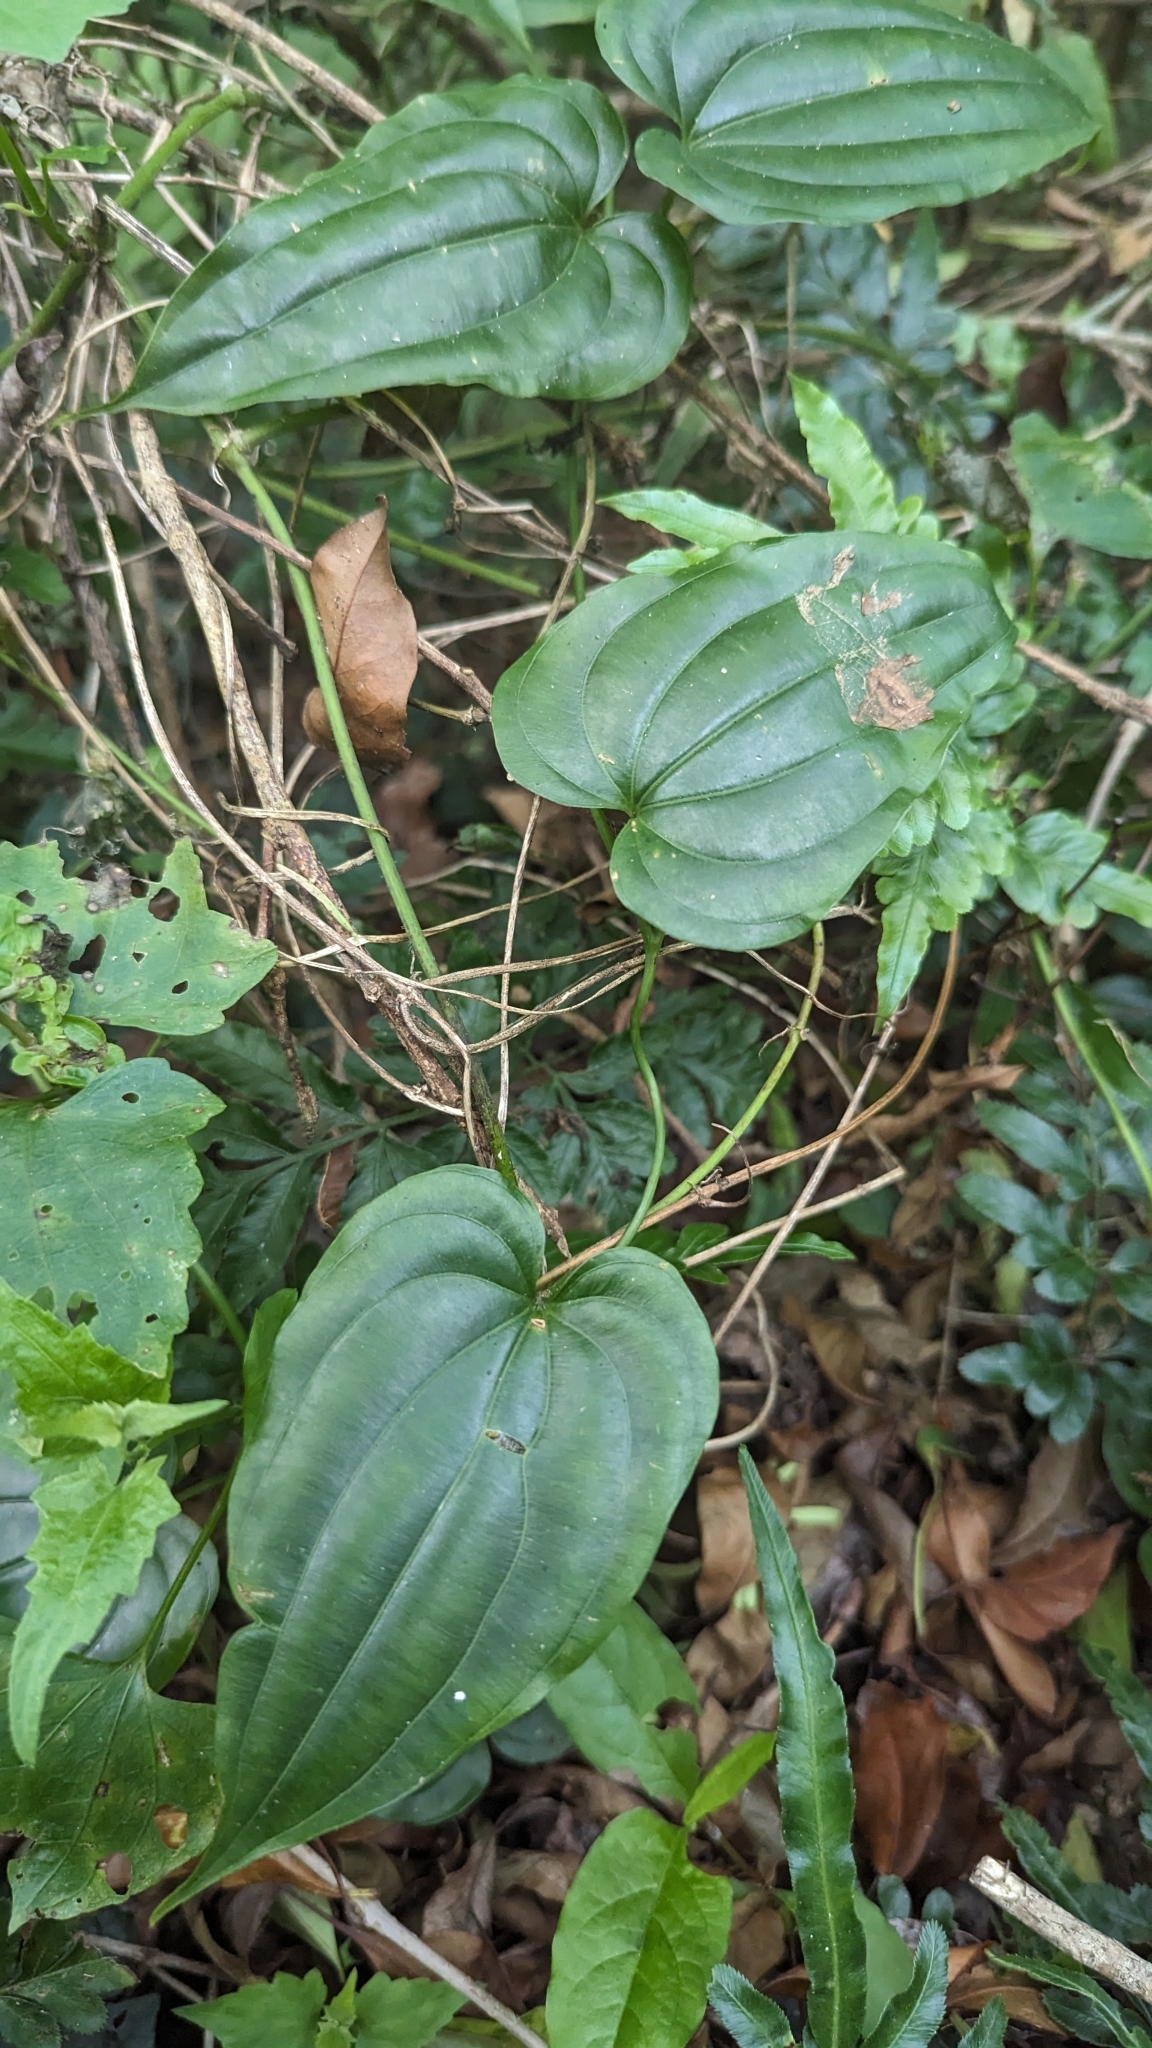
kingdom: Plantae
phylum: Tracheophyta
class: Liliopsida
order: Pandanales
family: Stemonaceae
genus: Stemona
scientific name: Stemona tuberosa
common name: Stemona
